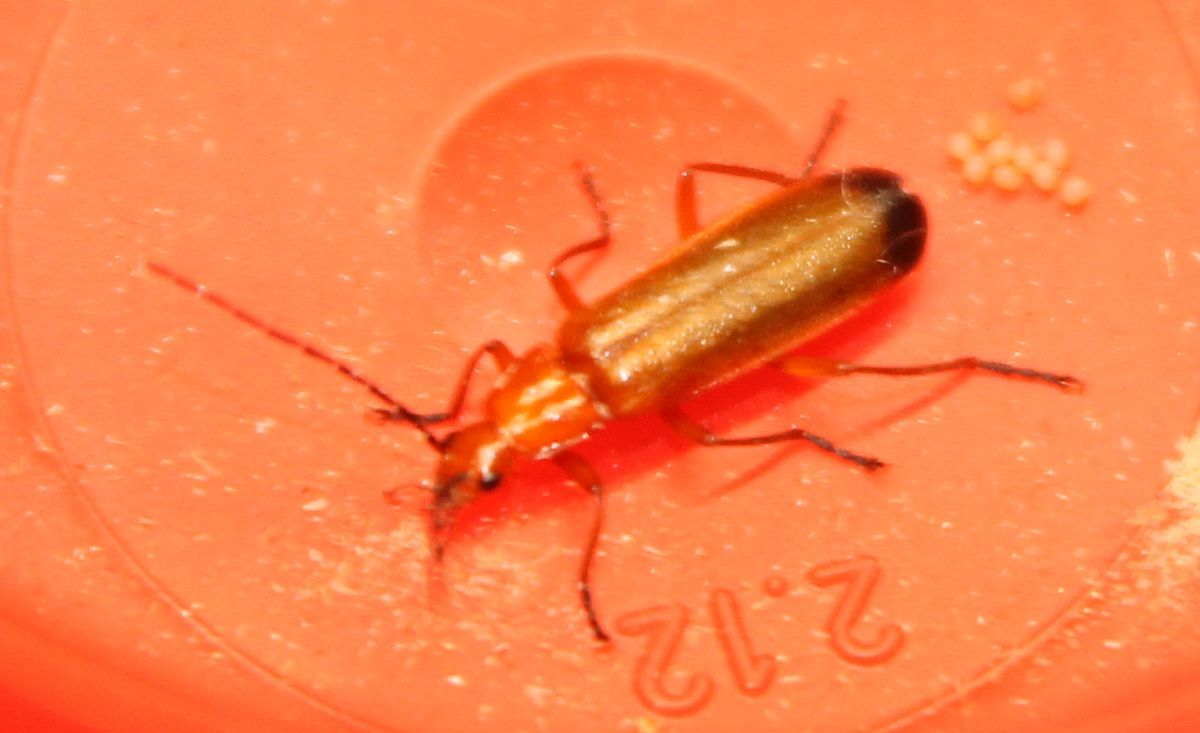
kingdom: Animalia
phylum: Arthropoda
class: Insecta
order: Coleoptera
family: Cantharidae
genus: Rhagonycha
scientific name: Rhagonycha fulva
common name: Common red soldier beetle
